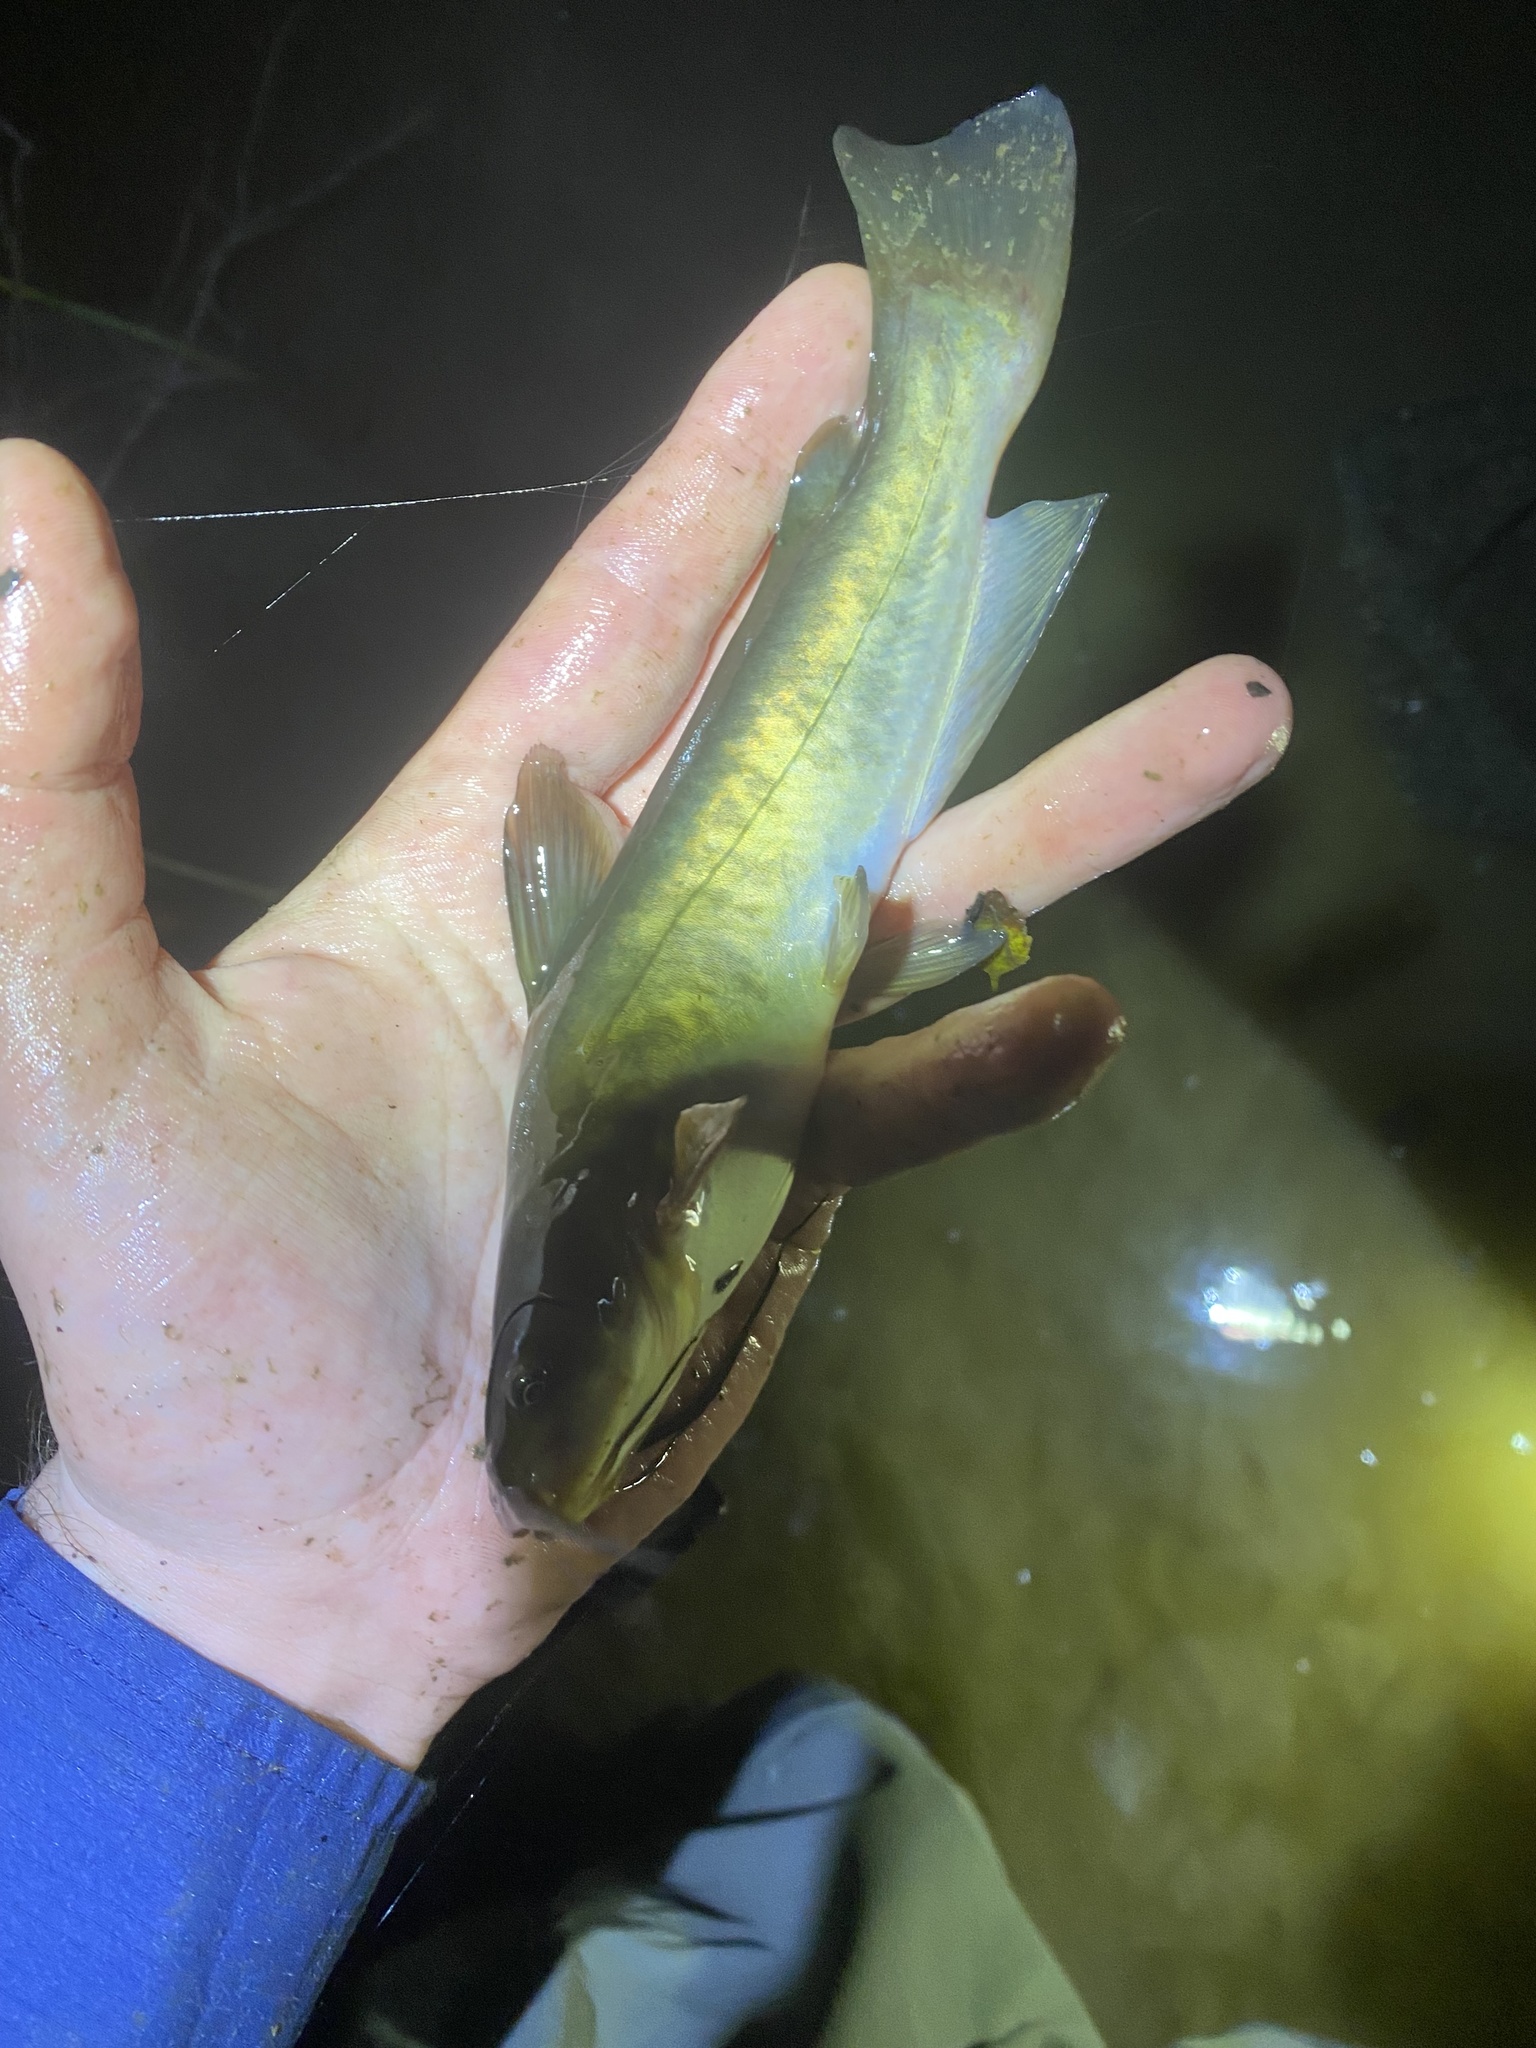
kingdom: Animalia
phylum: Chordata
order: Siluriformes
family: Ictaluridae
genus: Ameiurus
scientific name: Ameiurus nebulosus
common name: Brown bullhead
